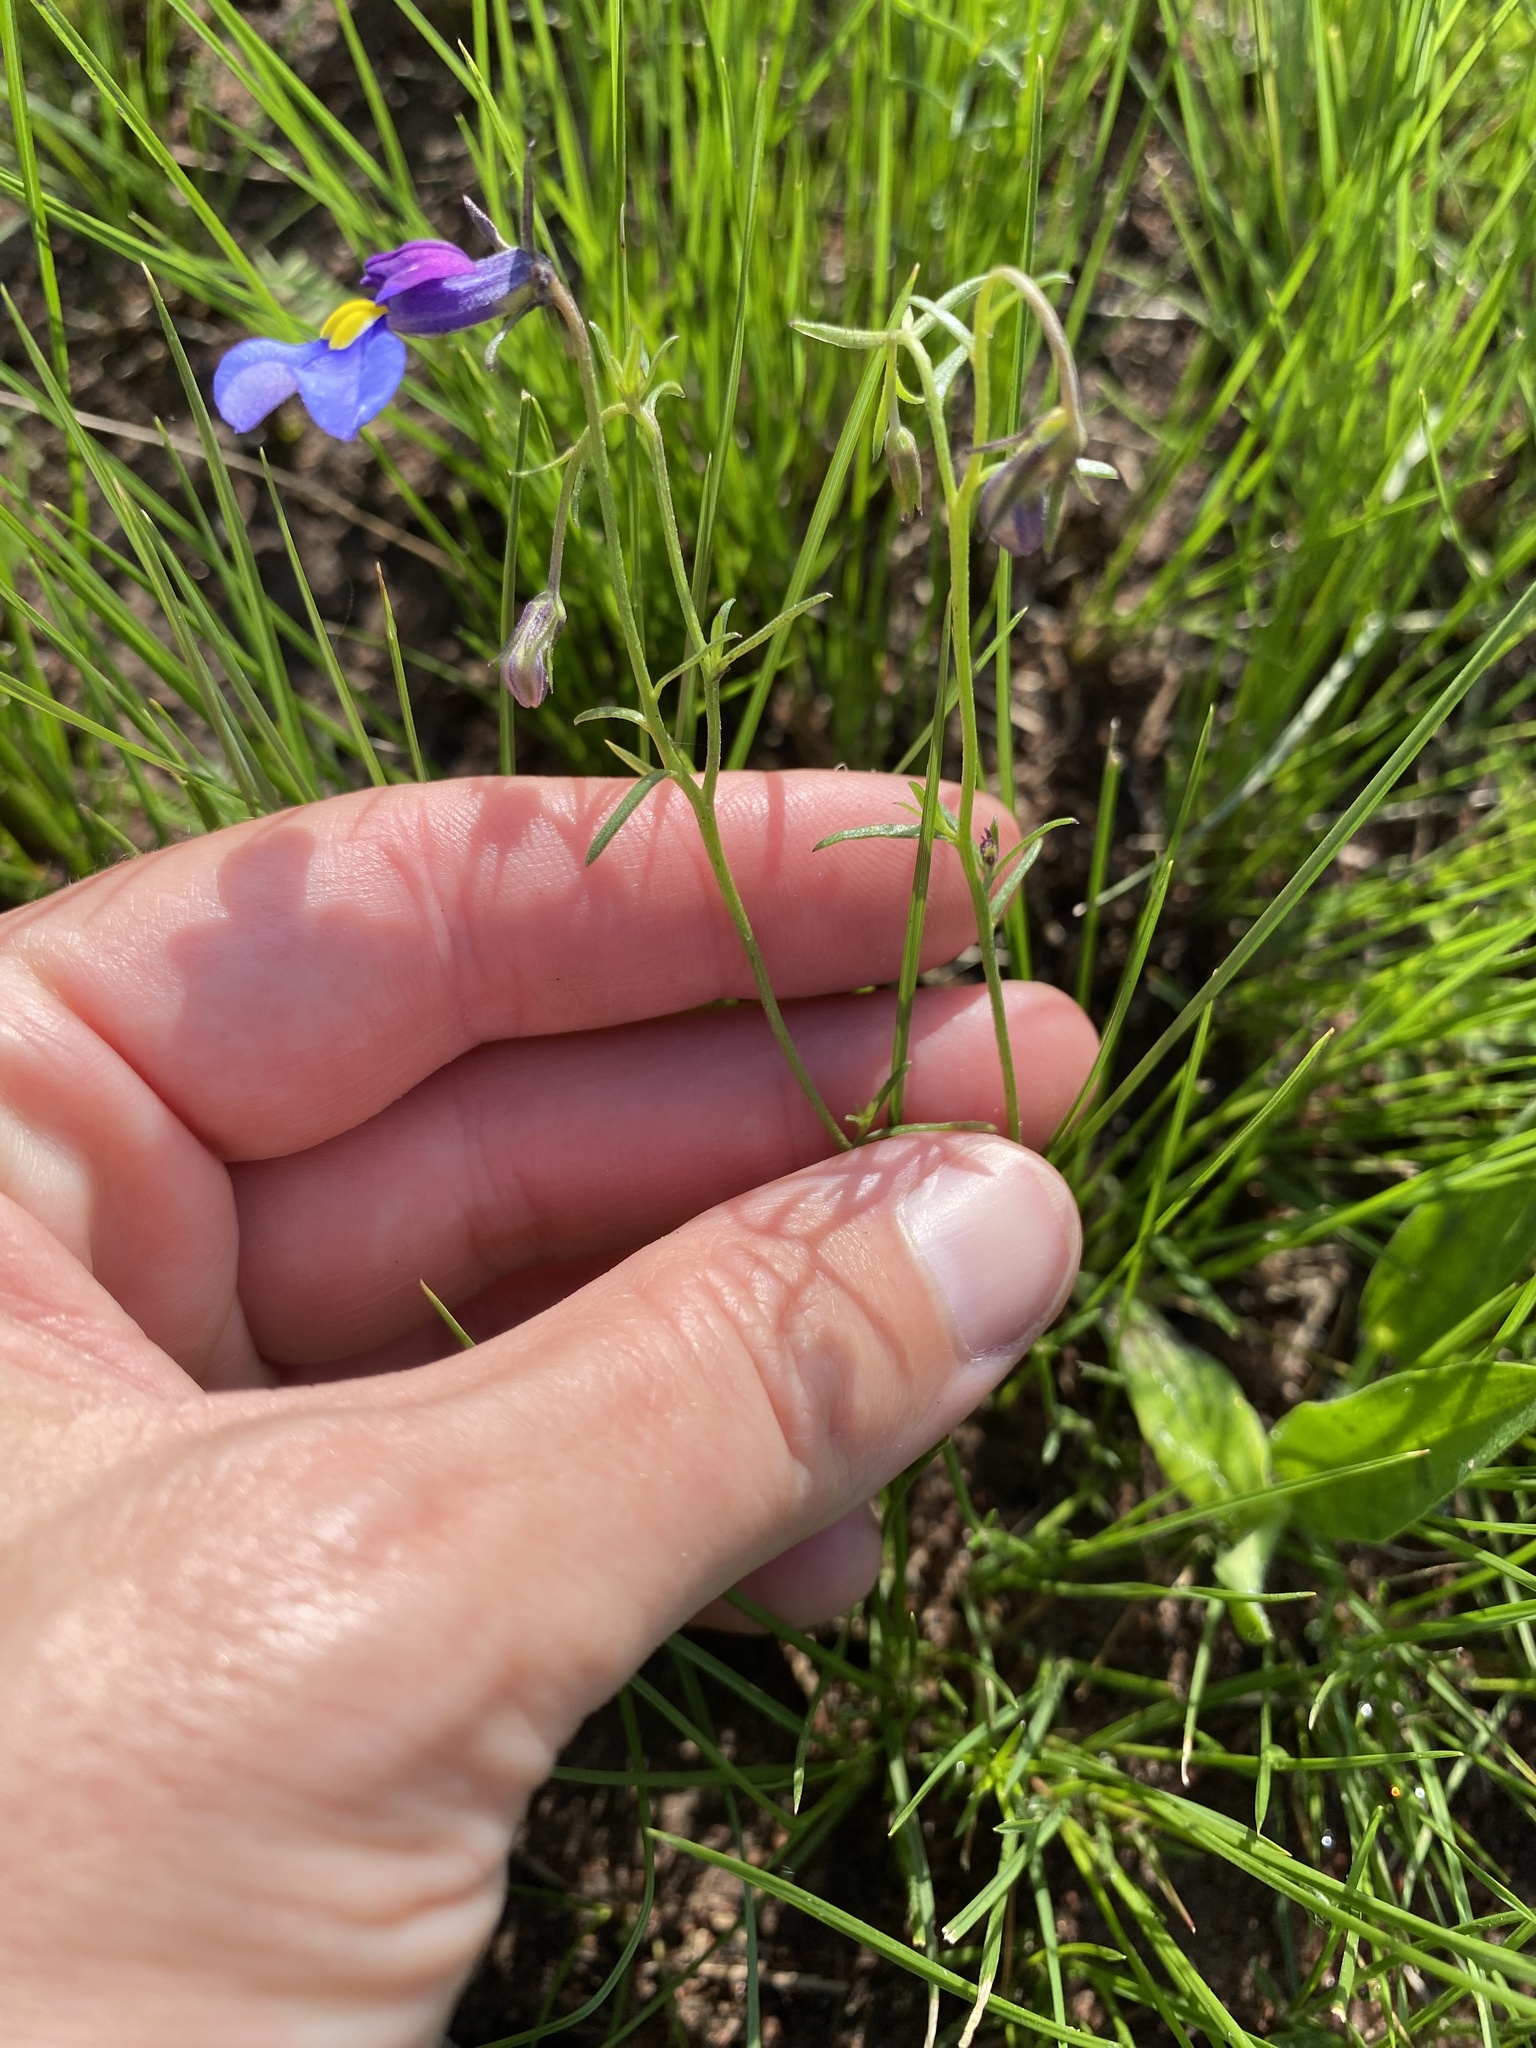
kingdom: Plantae
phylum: Tracheophyta
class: Magnoliopsida
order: Asterales
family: Campanulaceae
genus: Monopsis
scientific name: Monopsis decipiens
